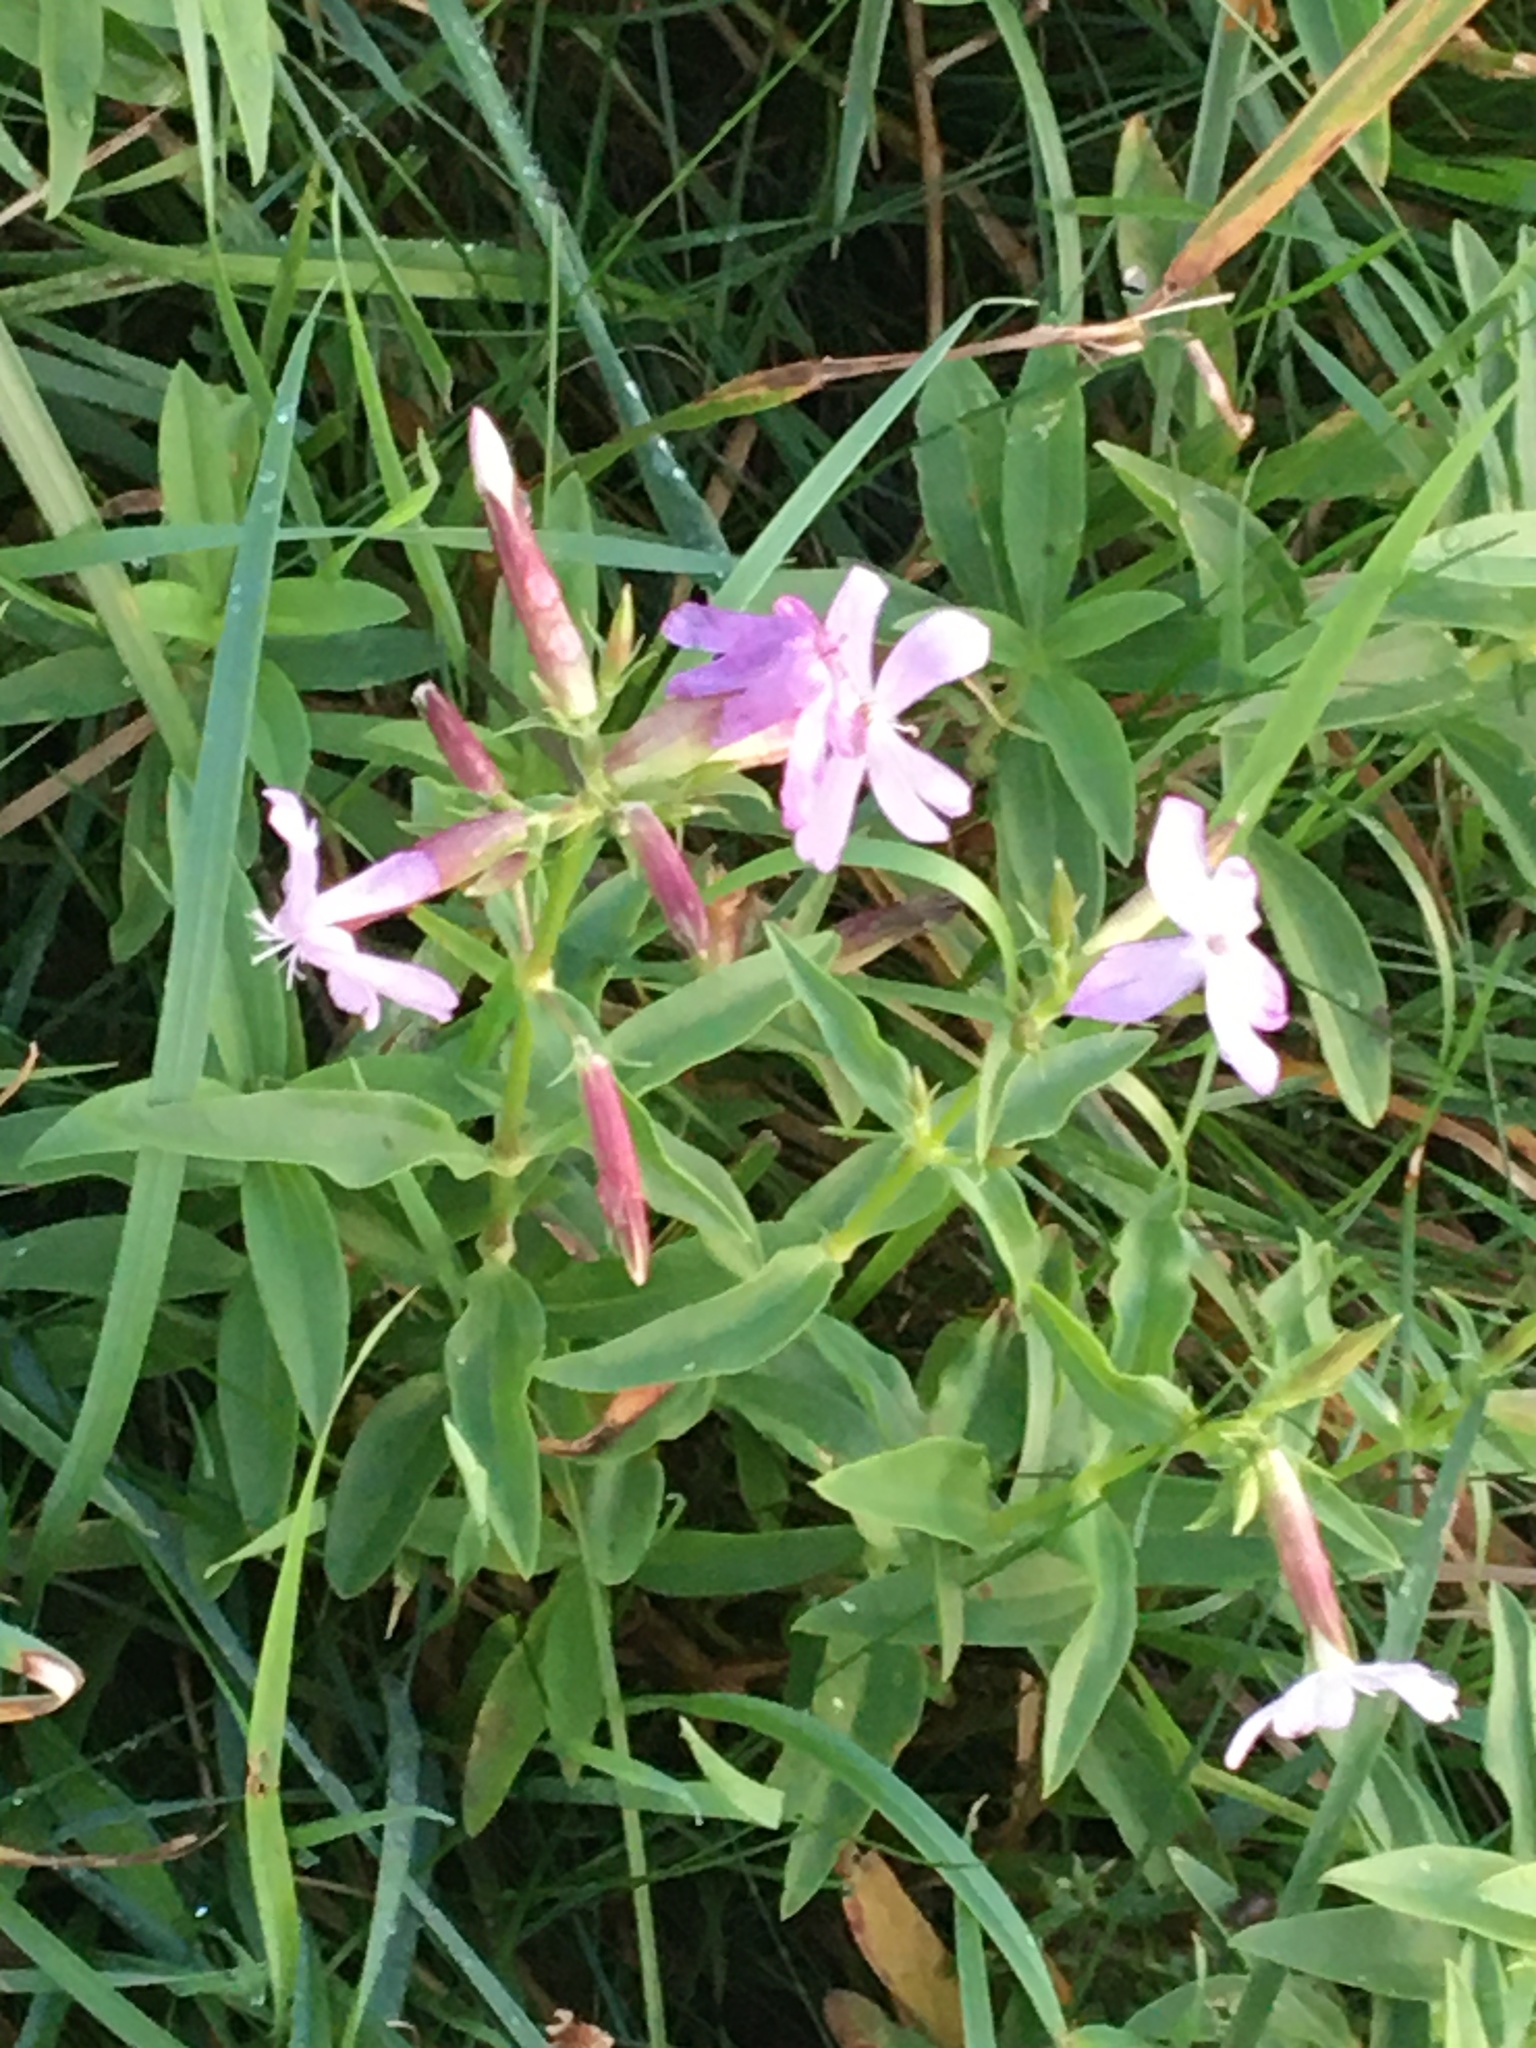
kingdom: Plantae
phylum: Tracheophyta
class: Magnoliopsida
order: Caryophyllales
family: Caryophyllaceae
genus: Saponaria
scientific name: Saponaria officinalis
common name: Soapwort
